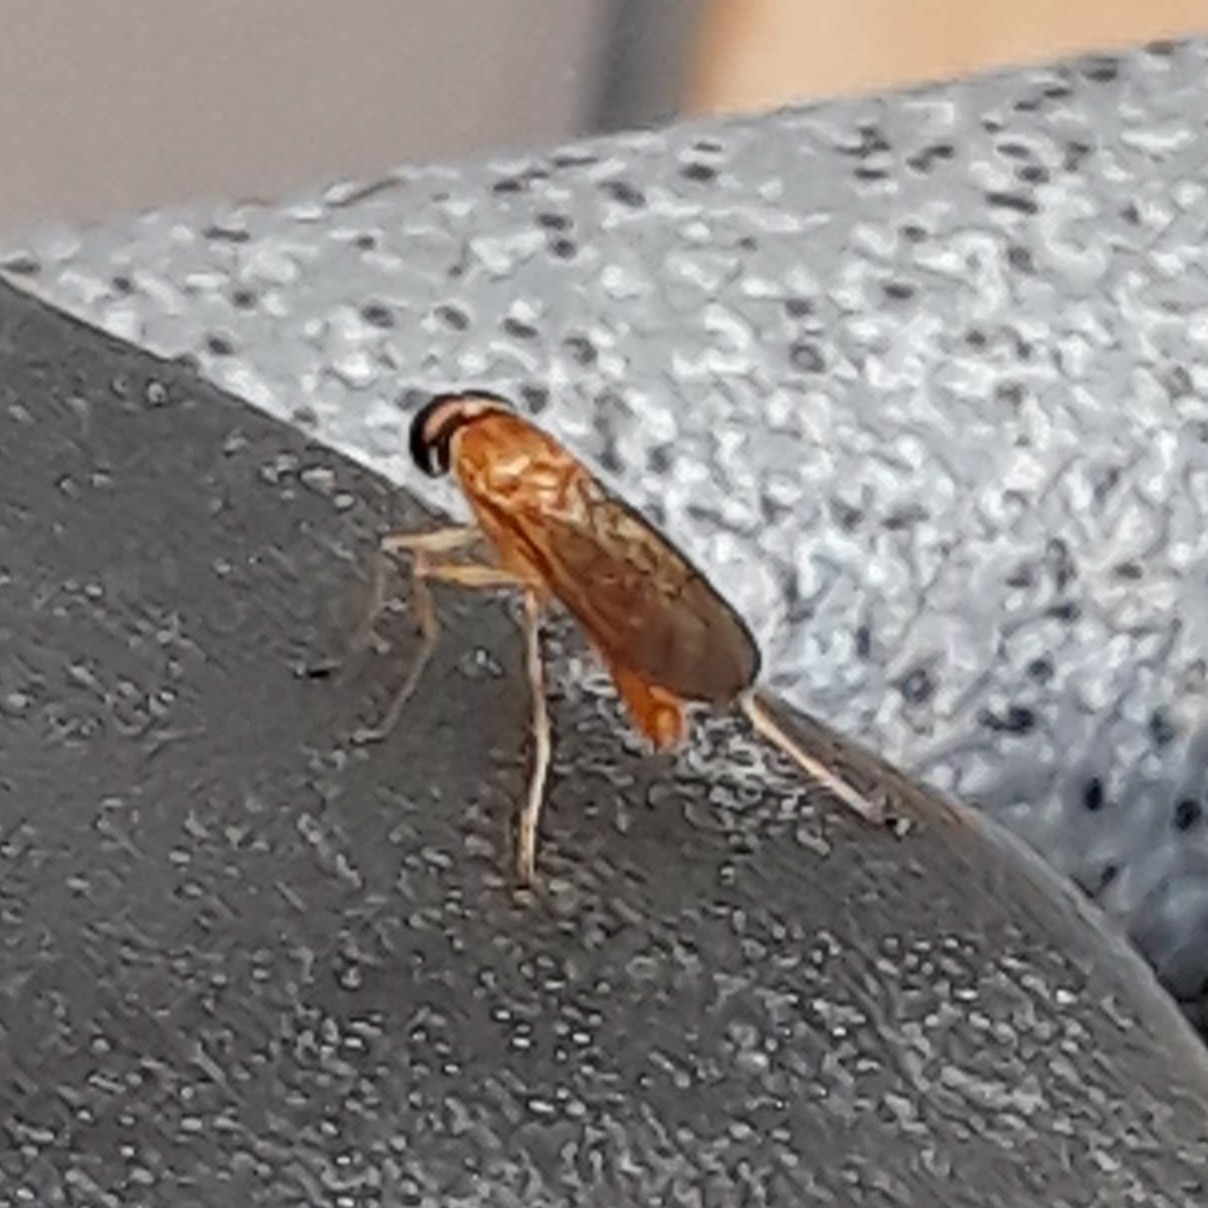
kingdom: Animalia
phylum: Arthropoda
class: Insecta
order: Diptera
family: Stratiomyidae
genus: Ptecticus
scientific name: Ptecticus trivittatus
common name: Compost fly
